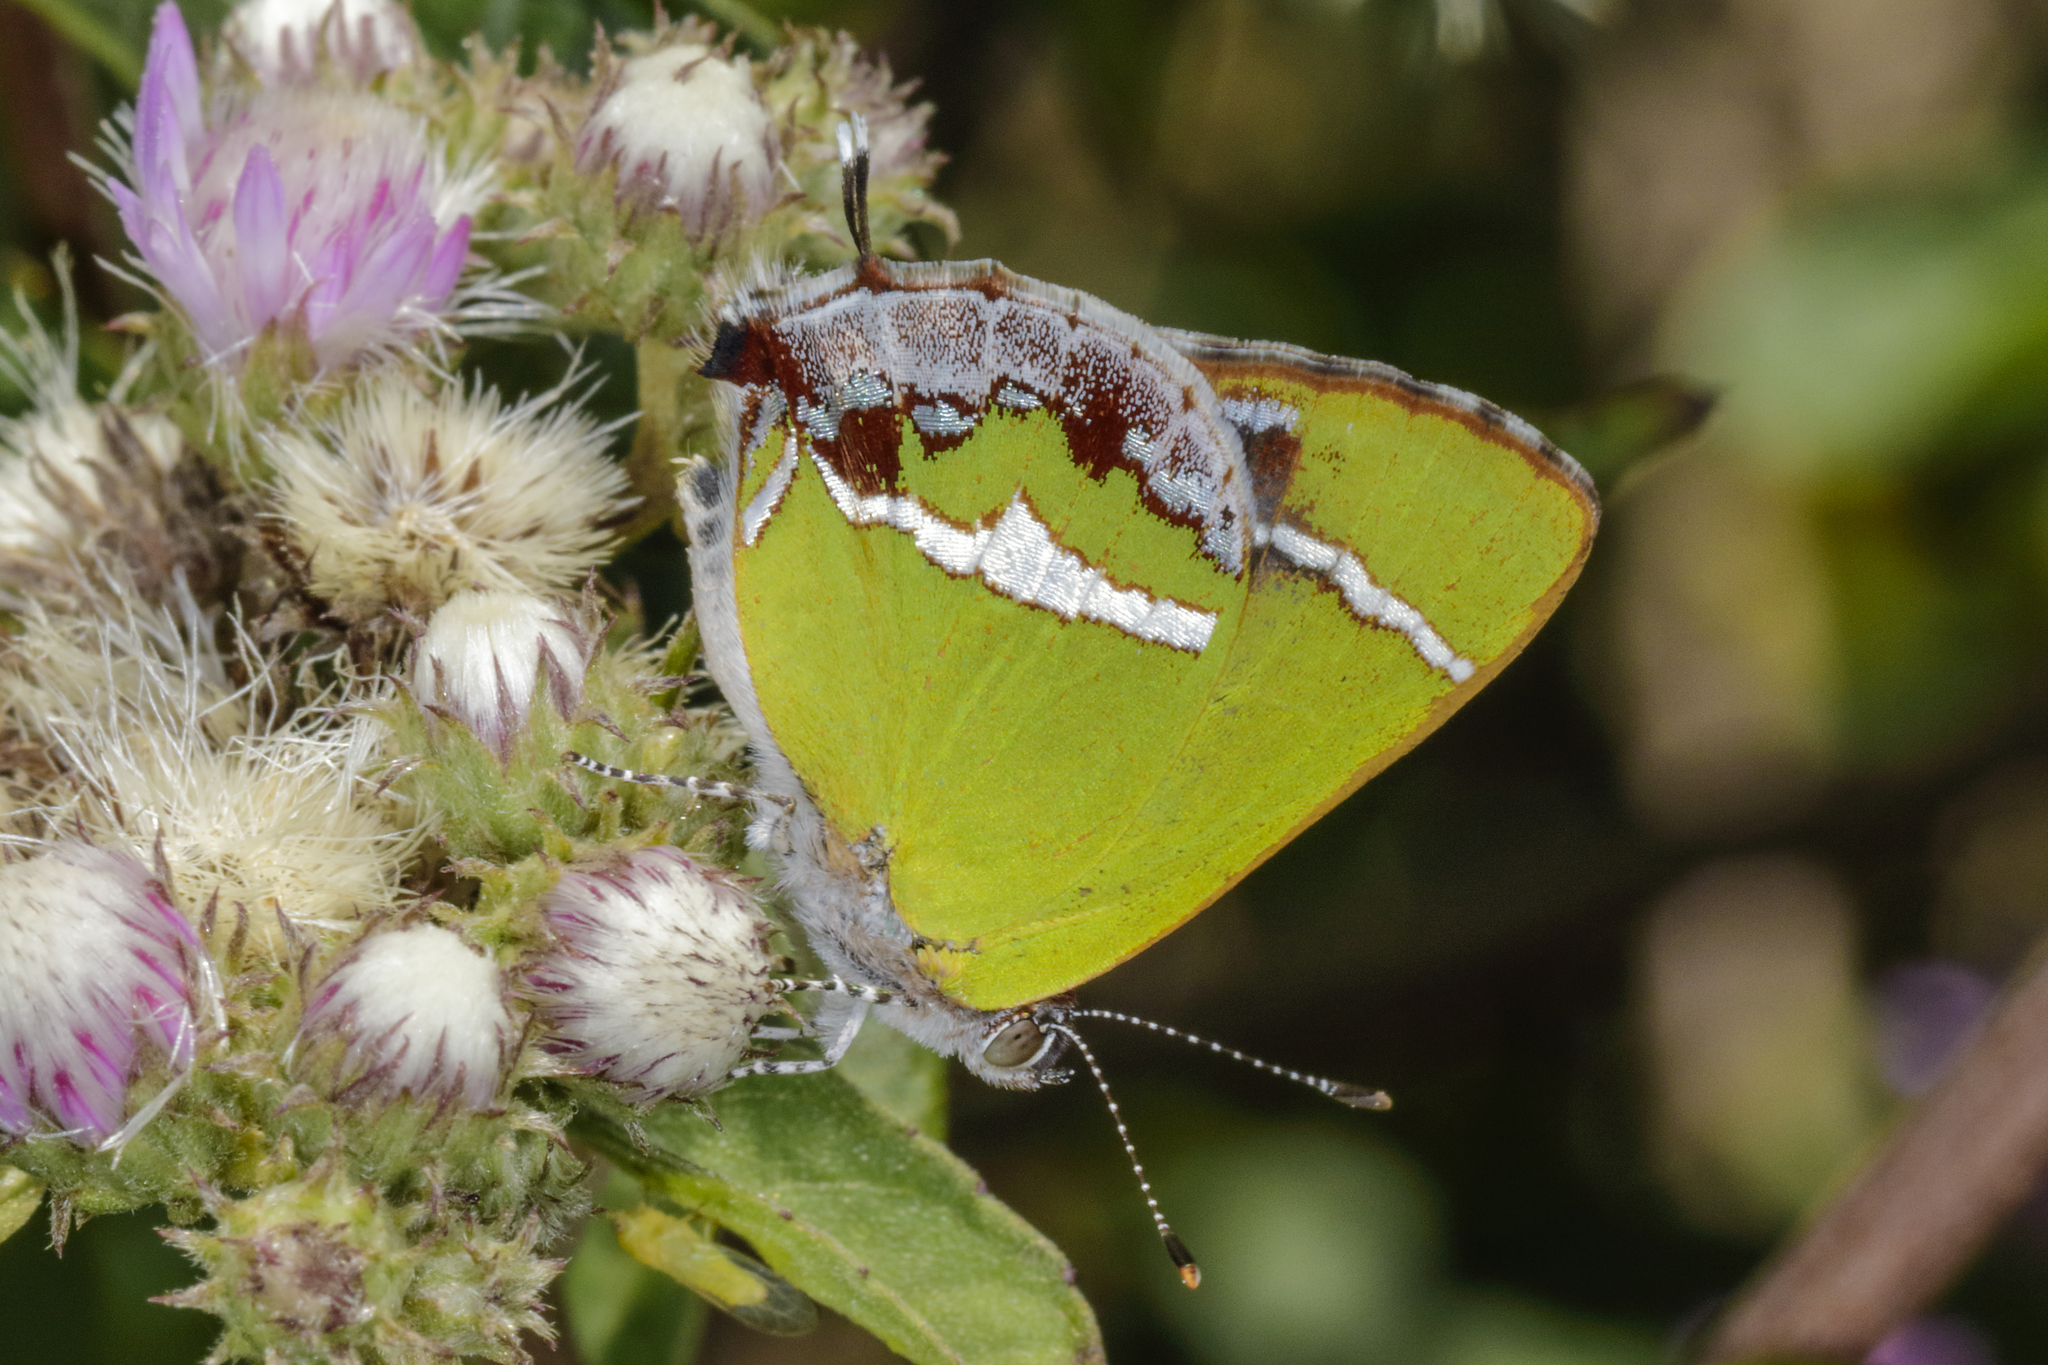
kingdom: Animalia
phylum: Arthropoda
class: Insecta
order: Lepidoptera
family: Lycaenidae
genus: Chlorostrymon
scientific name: Chlorostrymon simaethis
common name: Silver-banded hairstreak
